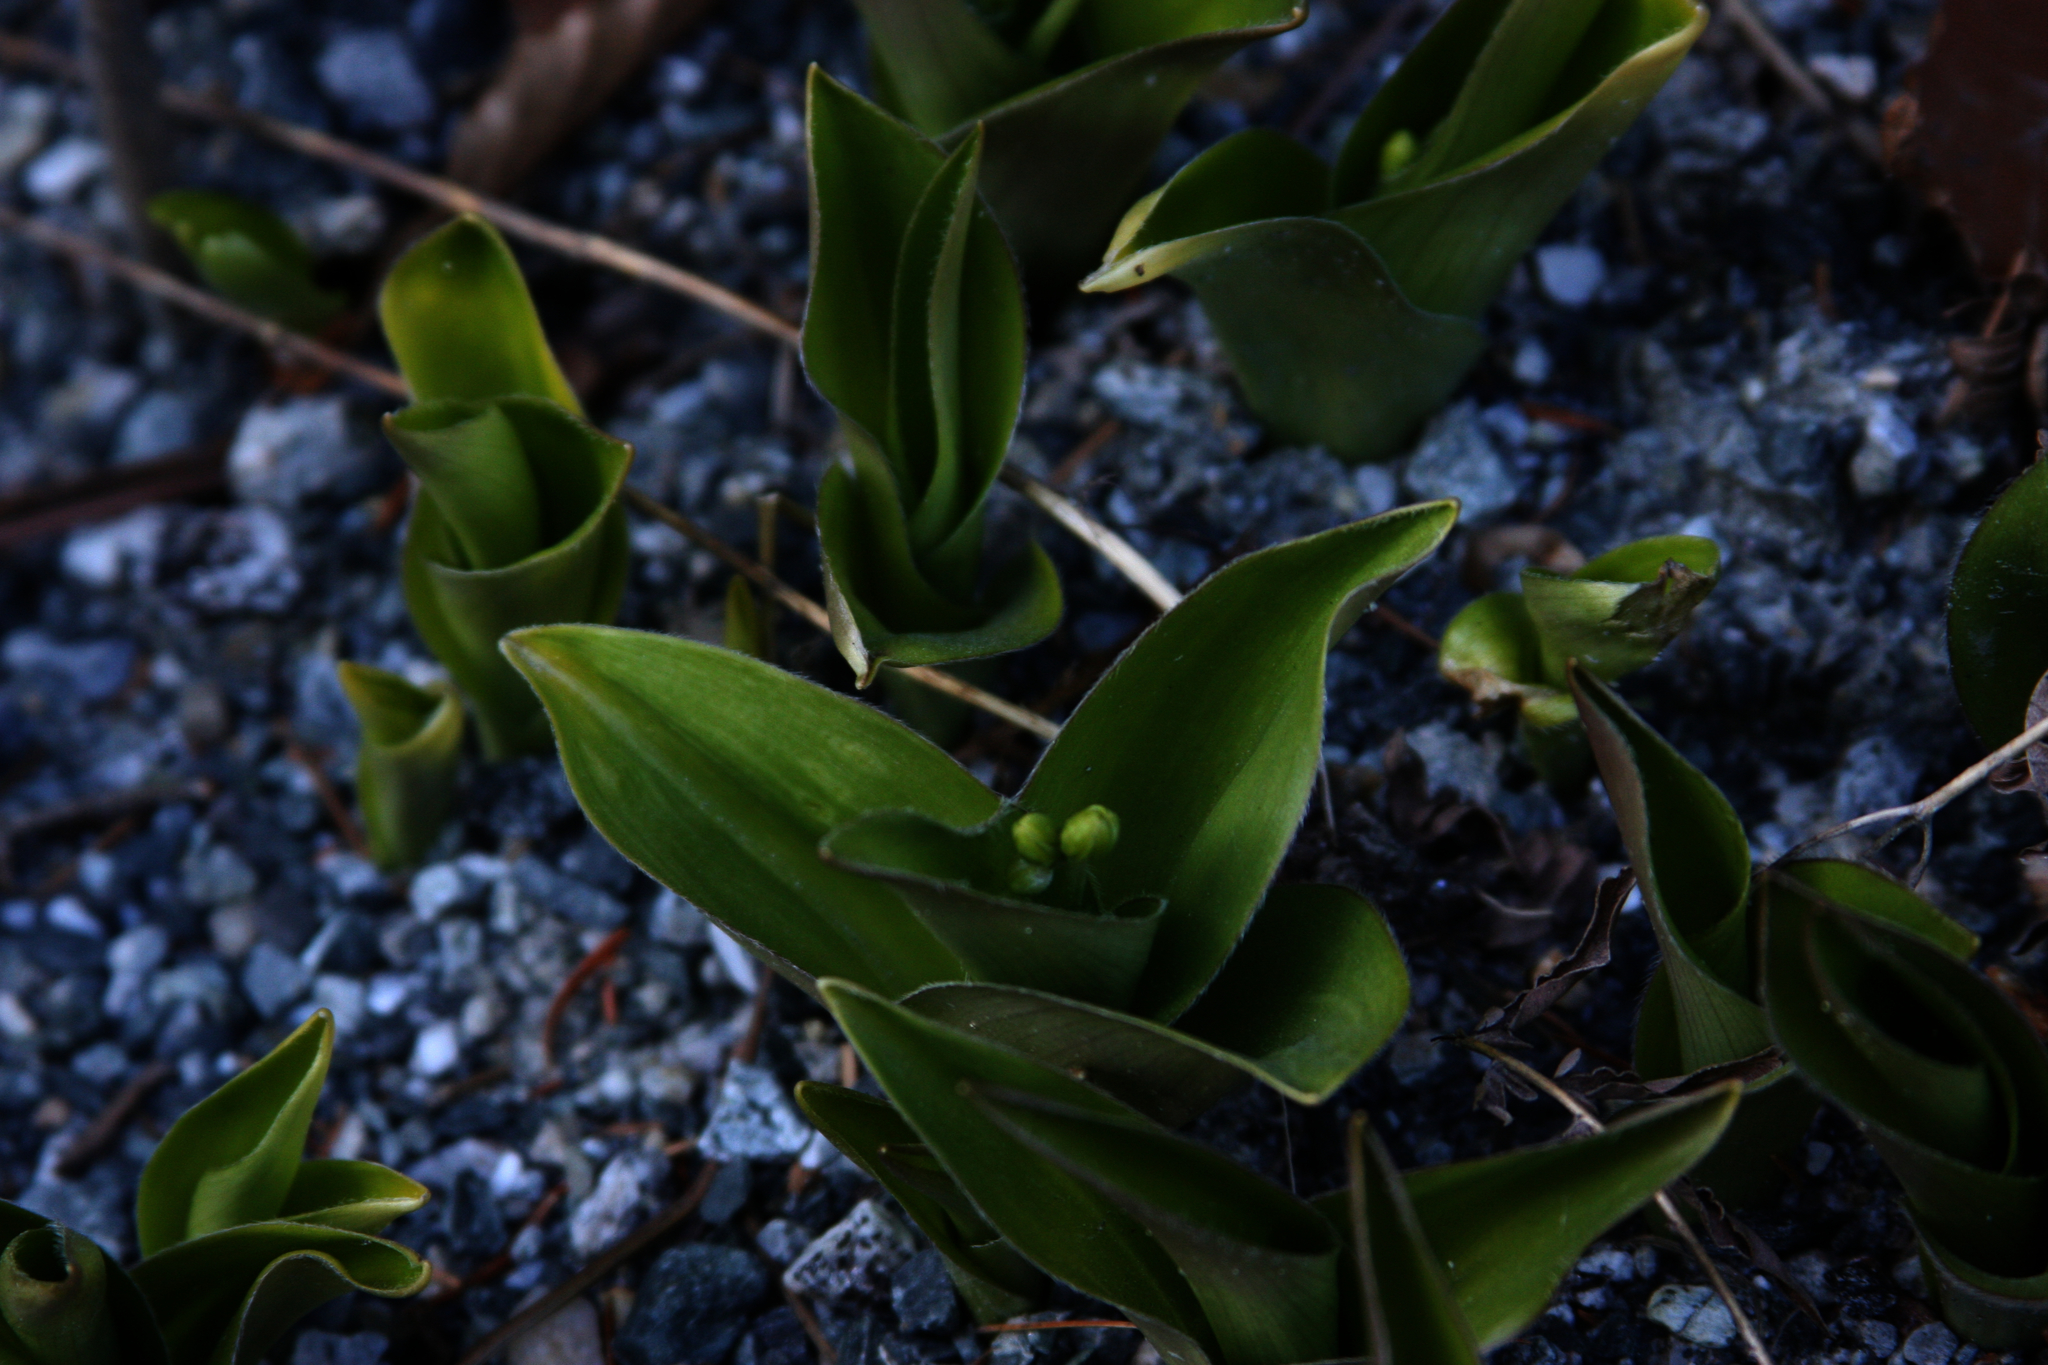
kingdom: Plantae
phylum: Tracheophyta
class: Liliopsida
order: Liliales
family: Liliaceae
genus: Clintonia
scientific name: Clintonia borealis
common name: Yellow clintonia
